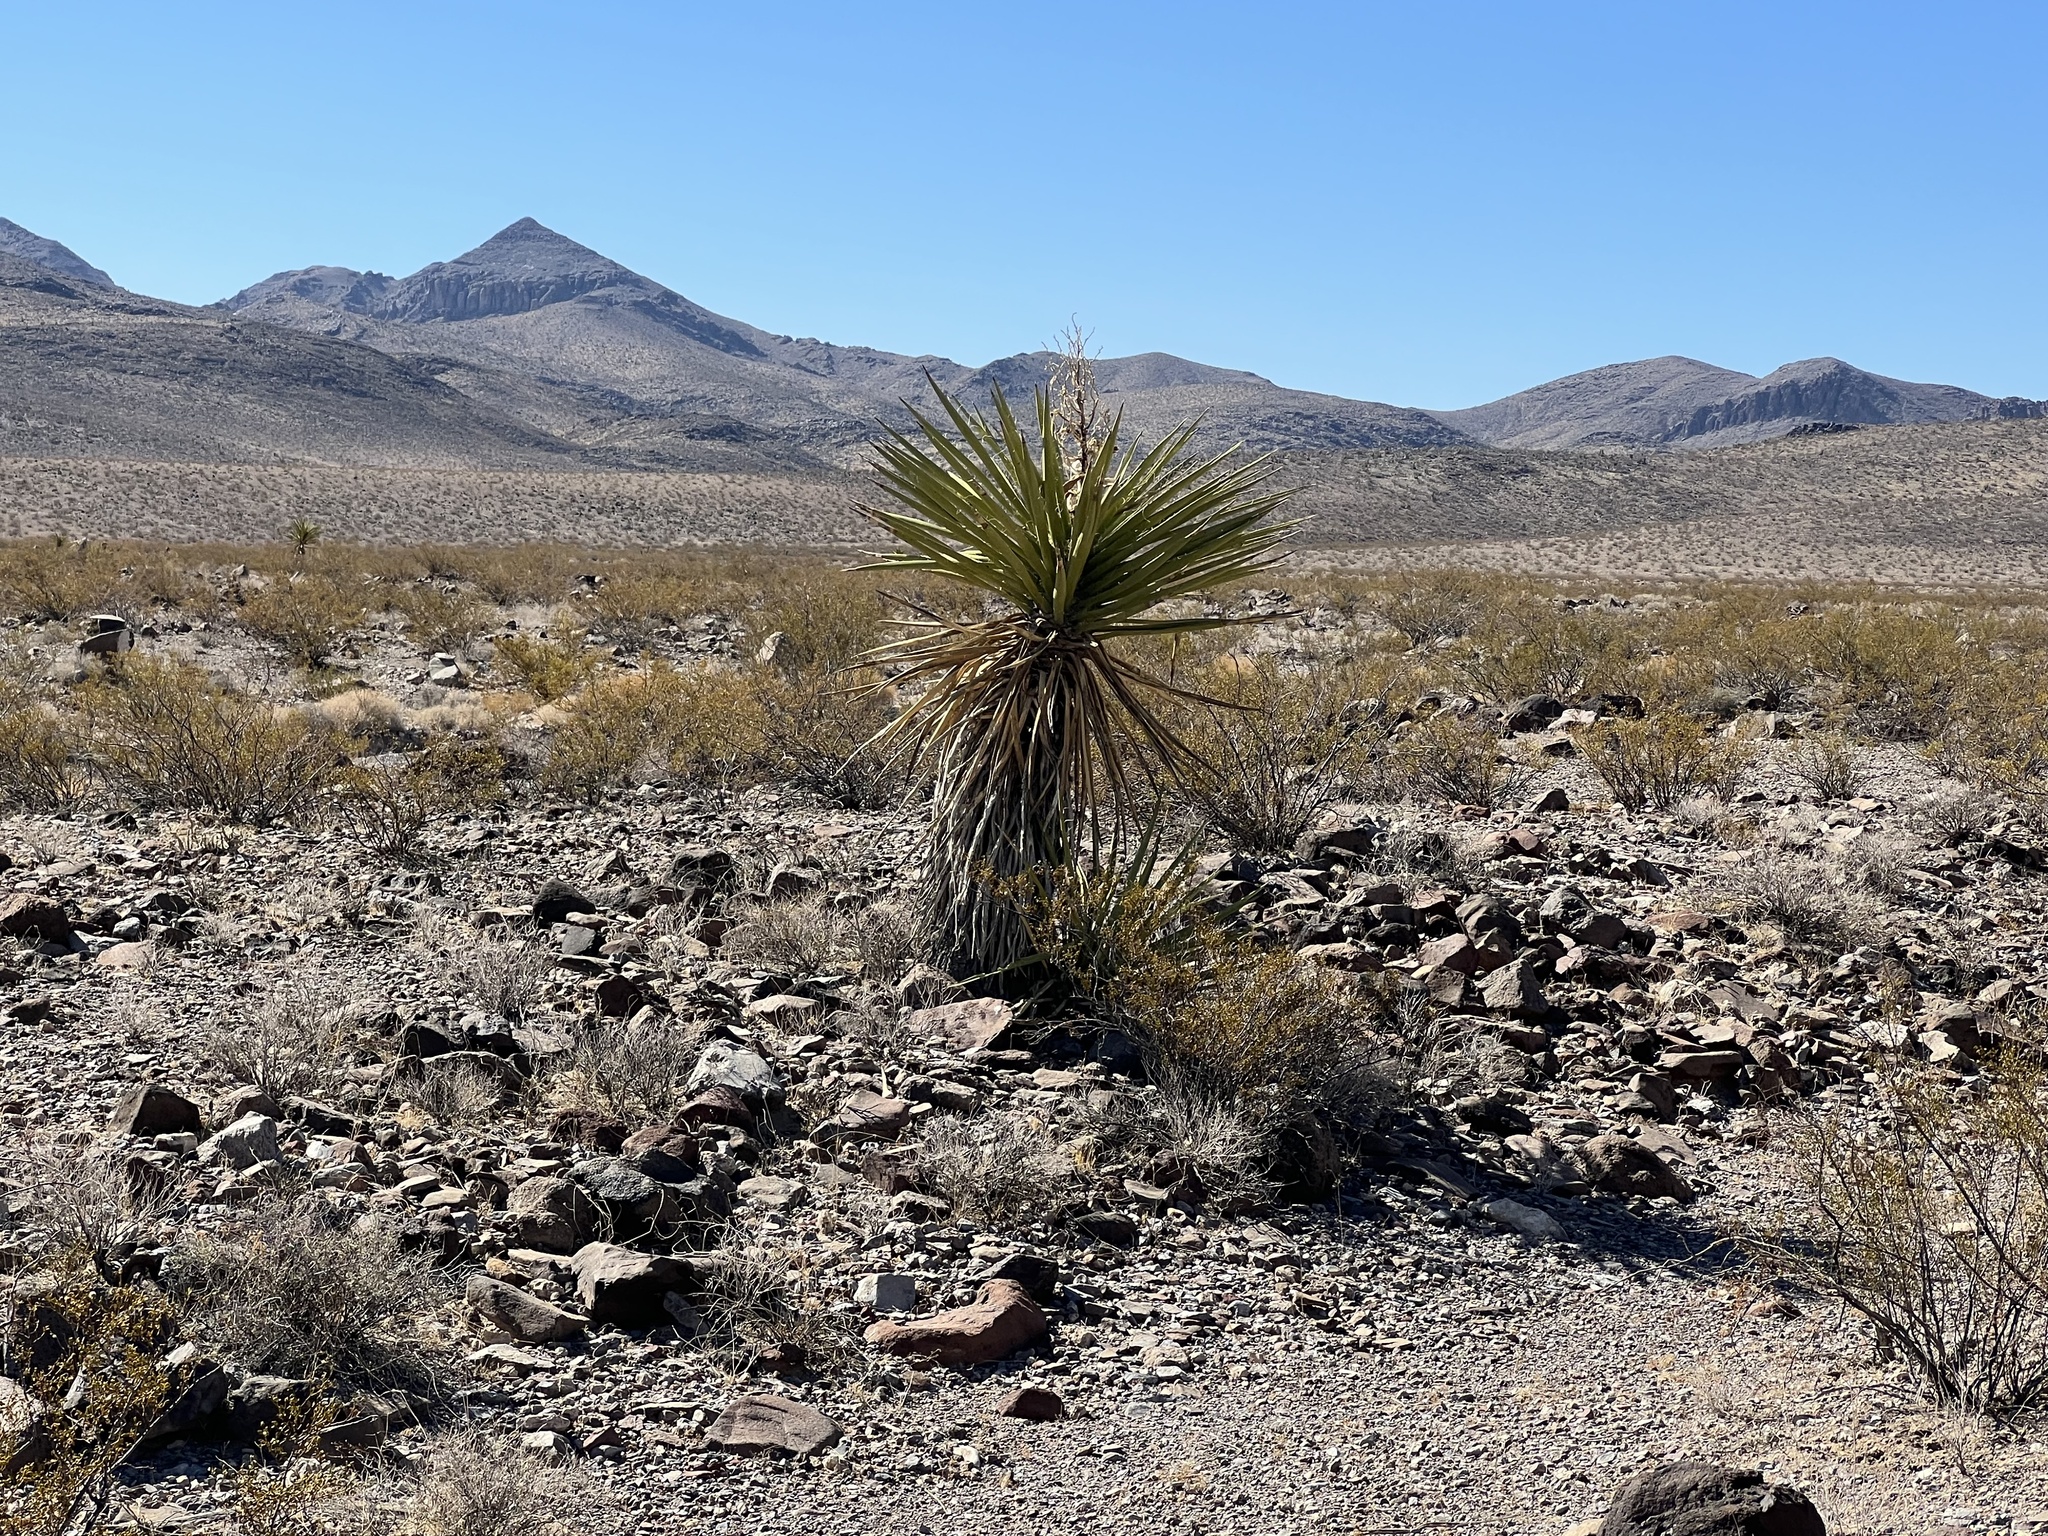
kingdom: Plantae
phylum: Tracheophyta
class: Liliopsida
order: Asparagales
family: Asparagaceae
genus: Yucca
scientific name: Yucca schidigera
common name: Mojave yucca
